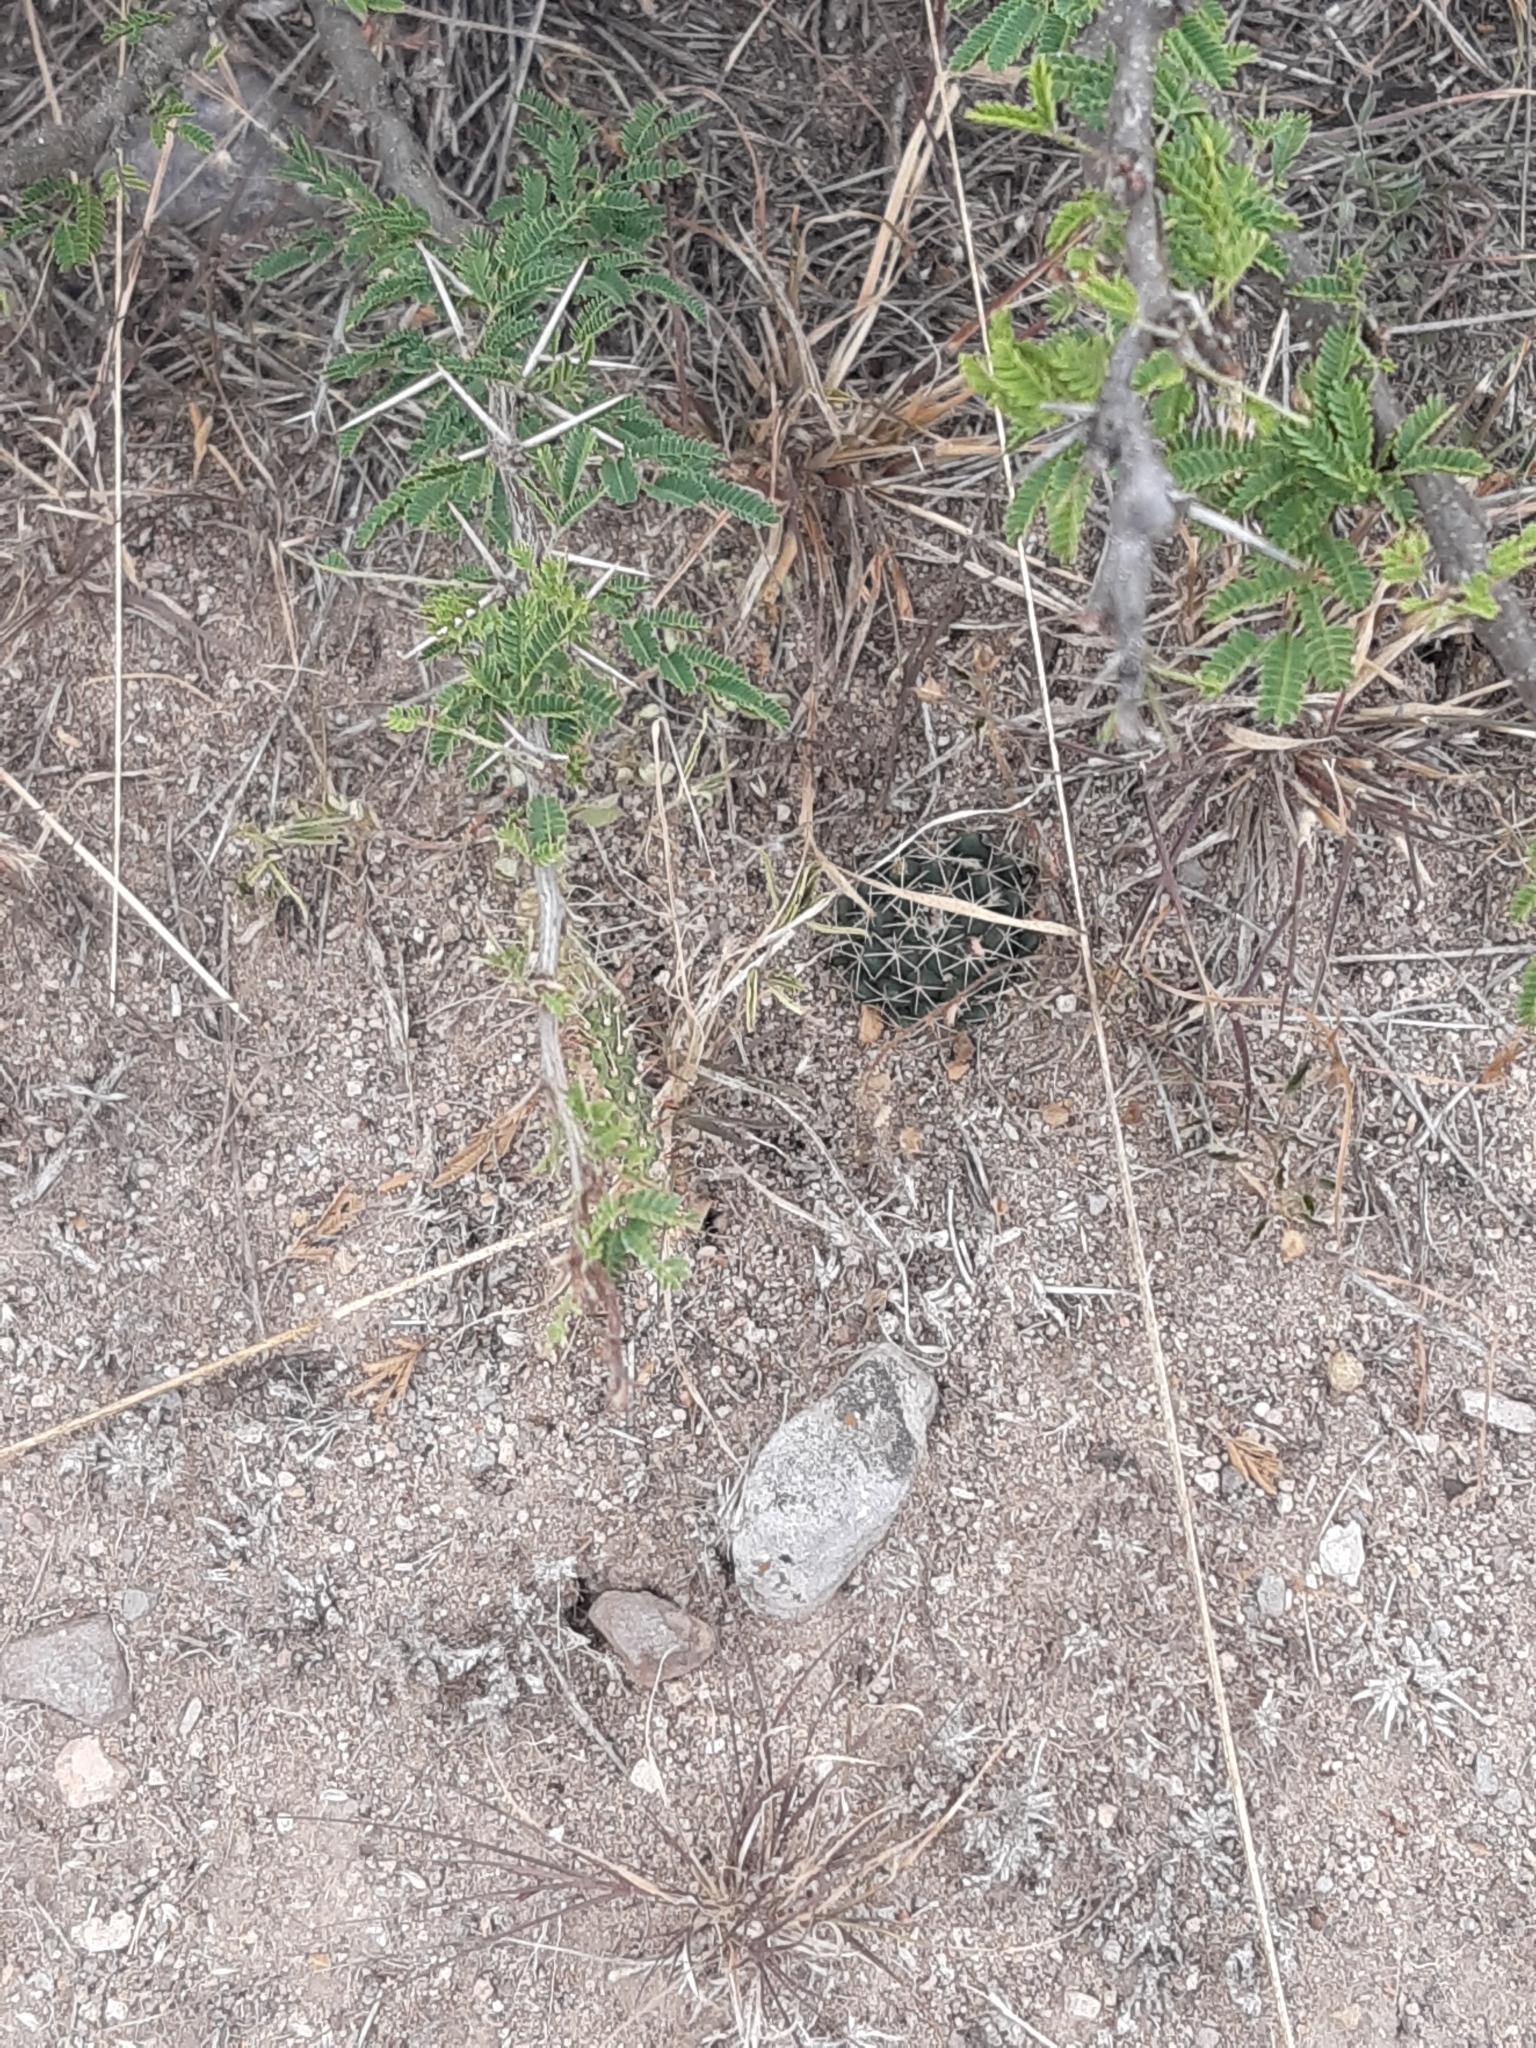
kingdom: Plantae
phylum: Tracheophyta
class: Magnoliopsida
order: Caryophyllales
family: Cactaceae
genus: Mammillaria
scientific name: Mammillaria uncinata
